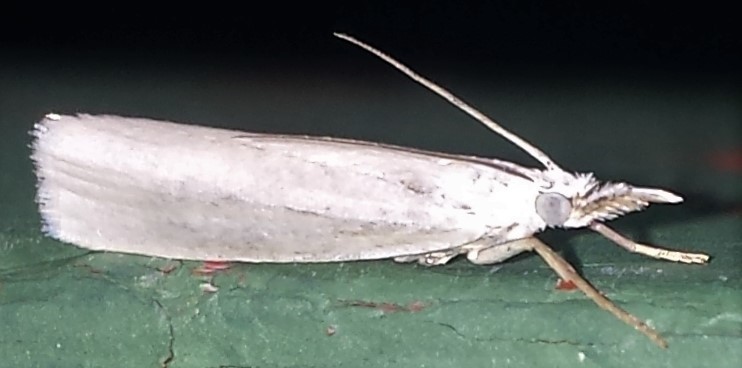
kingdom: Animalia
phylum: Arthropoda
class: Insecta
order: Lepidoptera
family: Crambidae
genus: Crambus
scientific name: Crambus perlellus
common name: Yellow satin veneer
